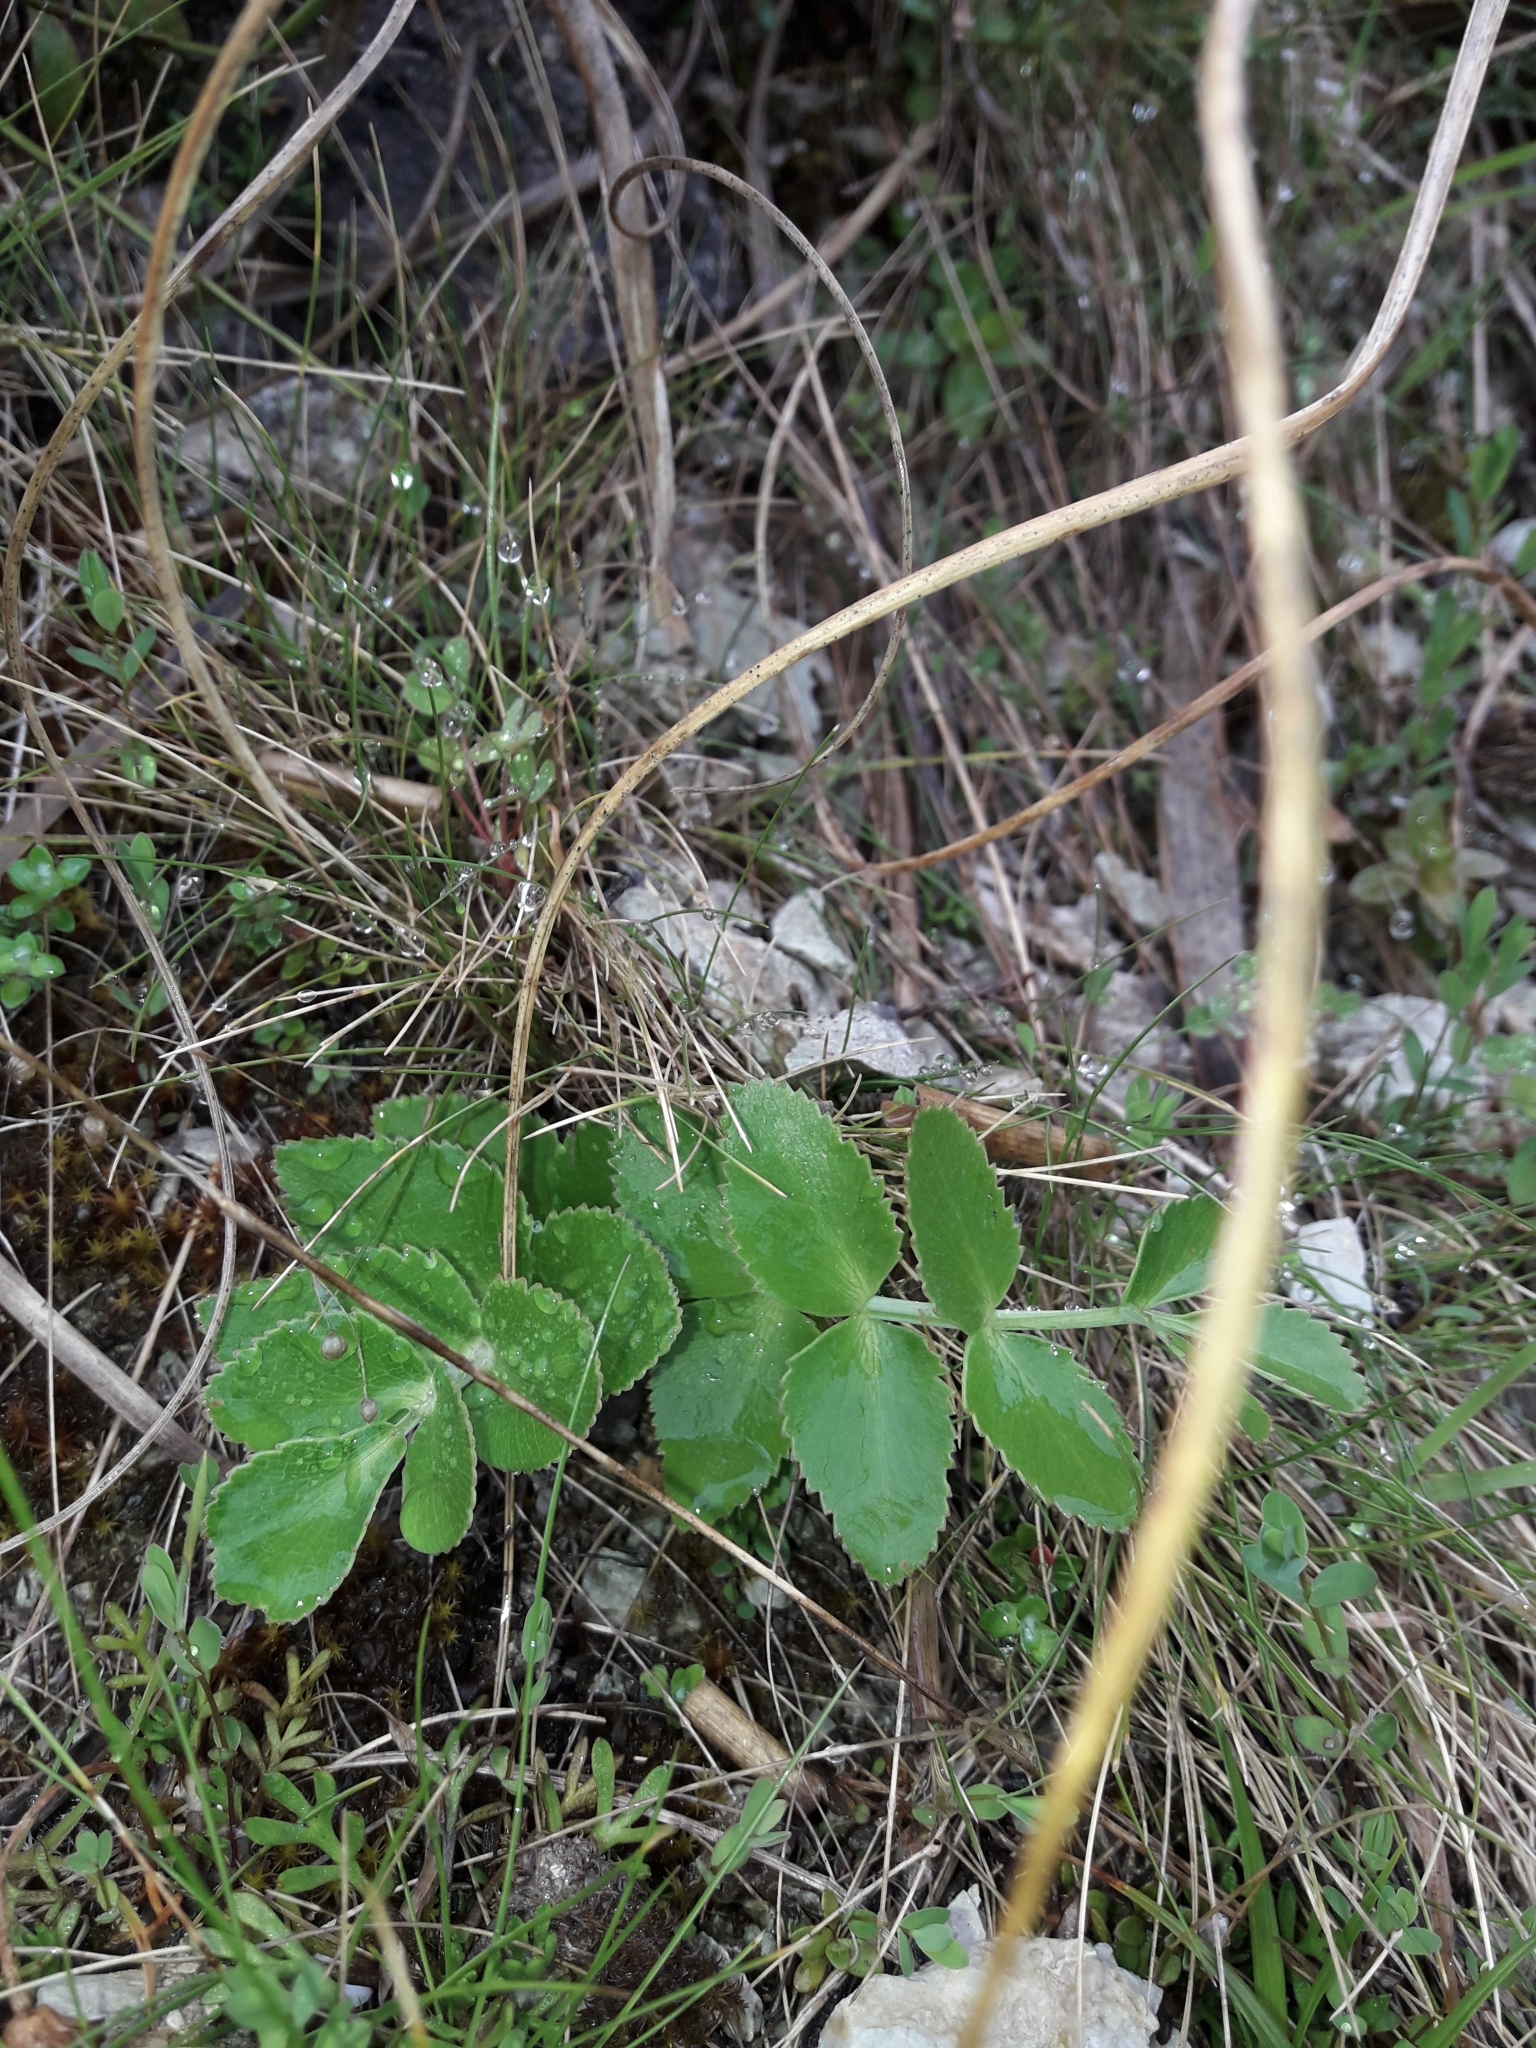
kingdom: Plantae
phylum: Tracheophyta
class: Magnoliopsida
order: Apiales
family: Apiaceae
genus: Gingidia
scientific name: Gingidia montana
